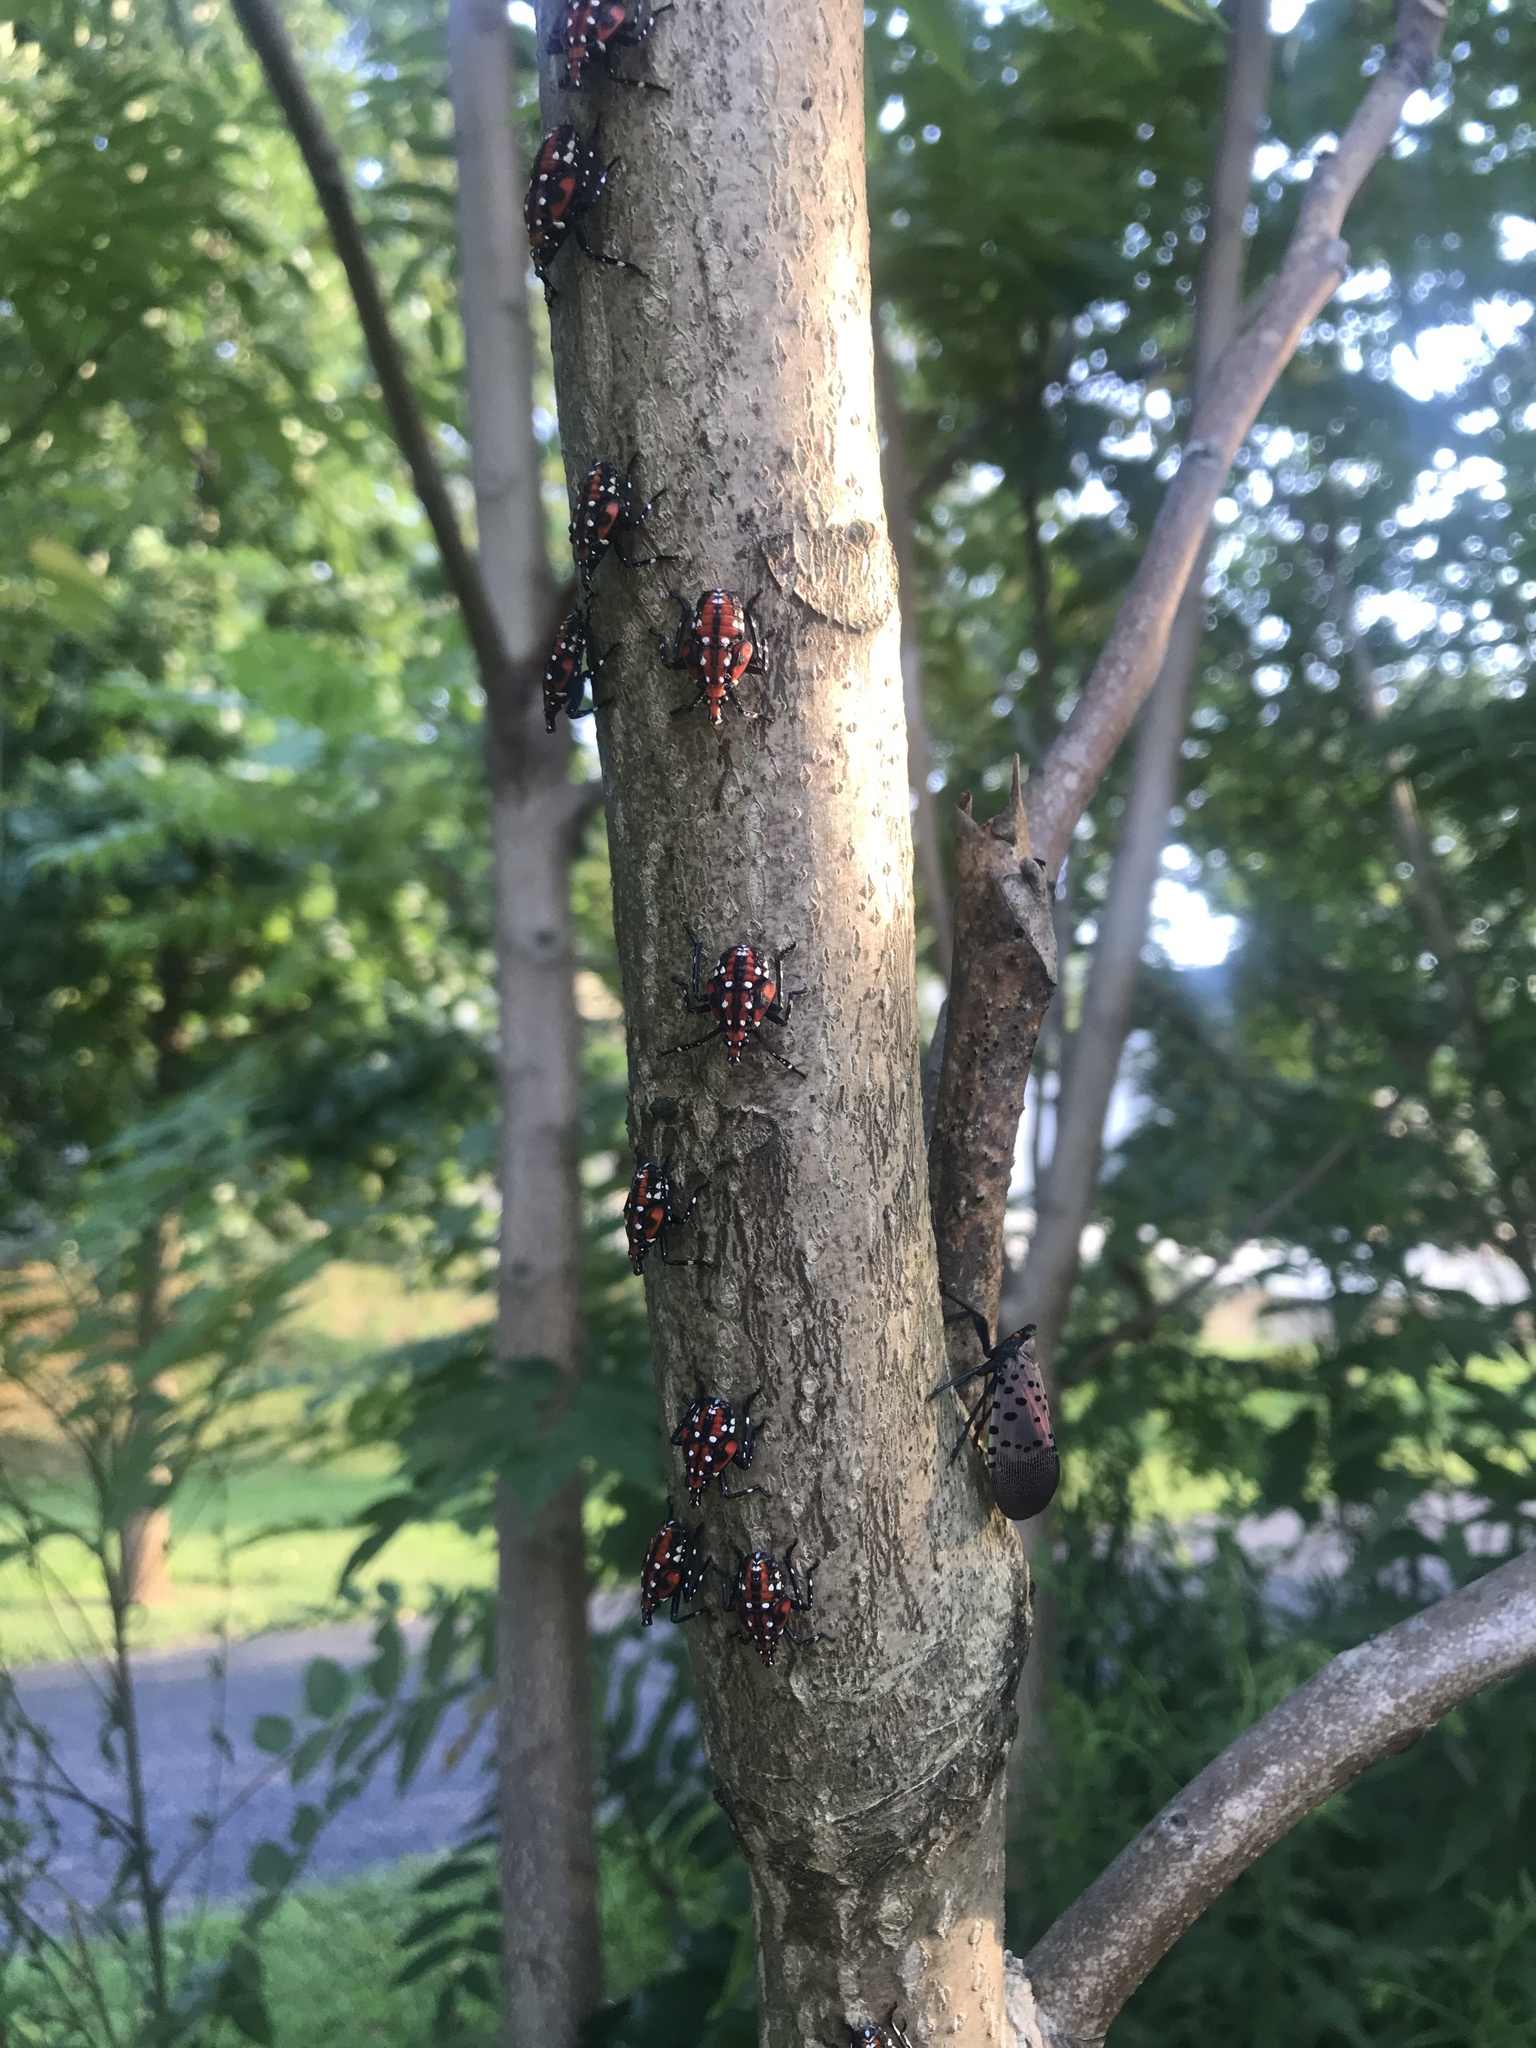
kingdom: Animalia
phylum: Arthropoda
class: Insecta
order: Hemiptera
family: Fulgoridae
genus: Lycorma
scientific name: Lycorma delicatula
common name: Spotted lanternfly
